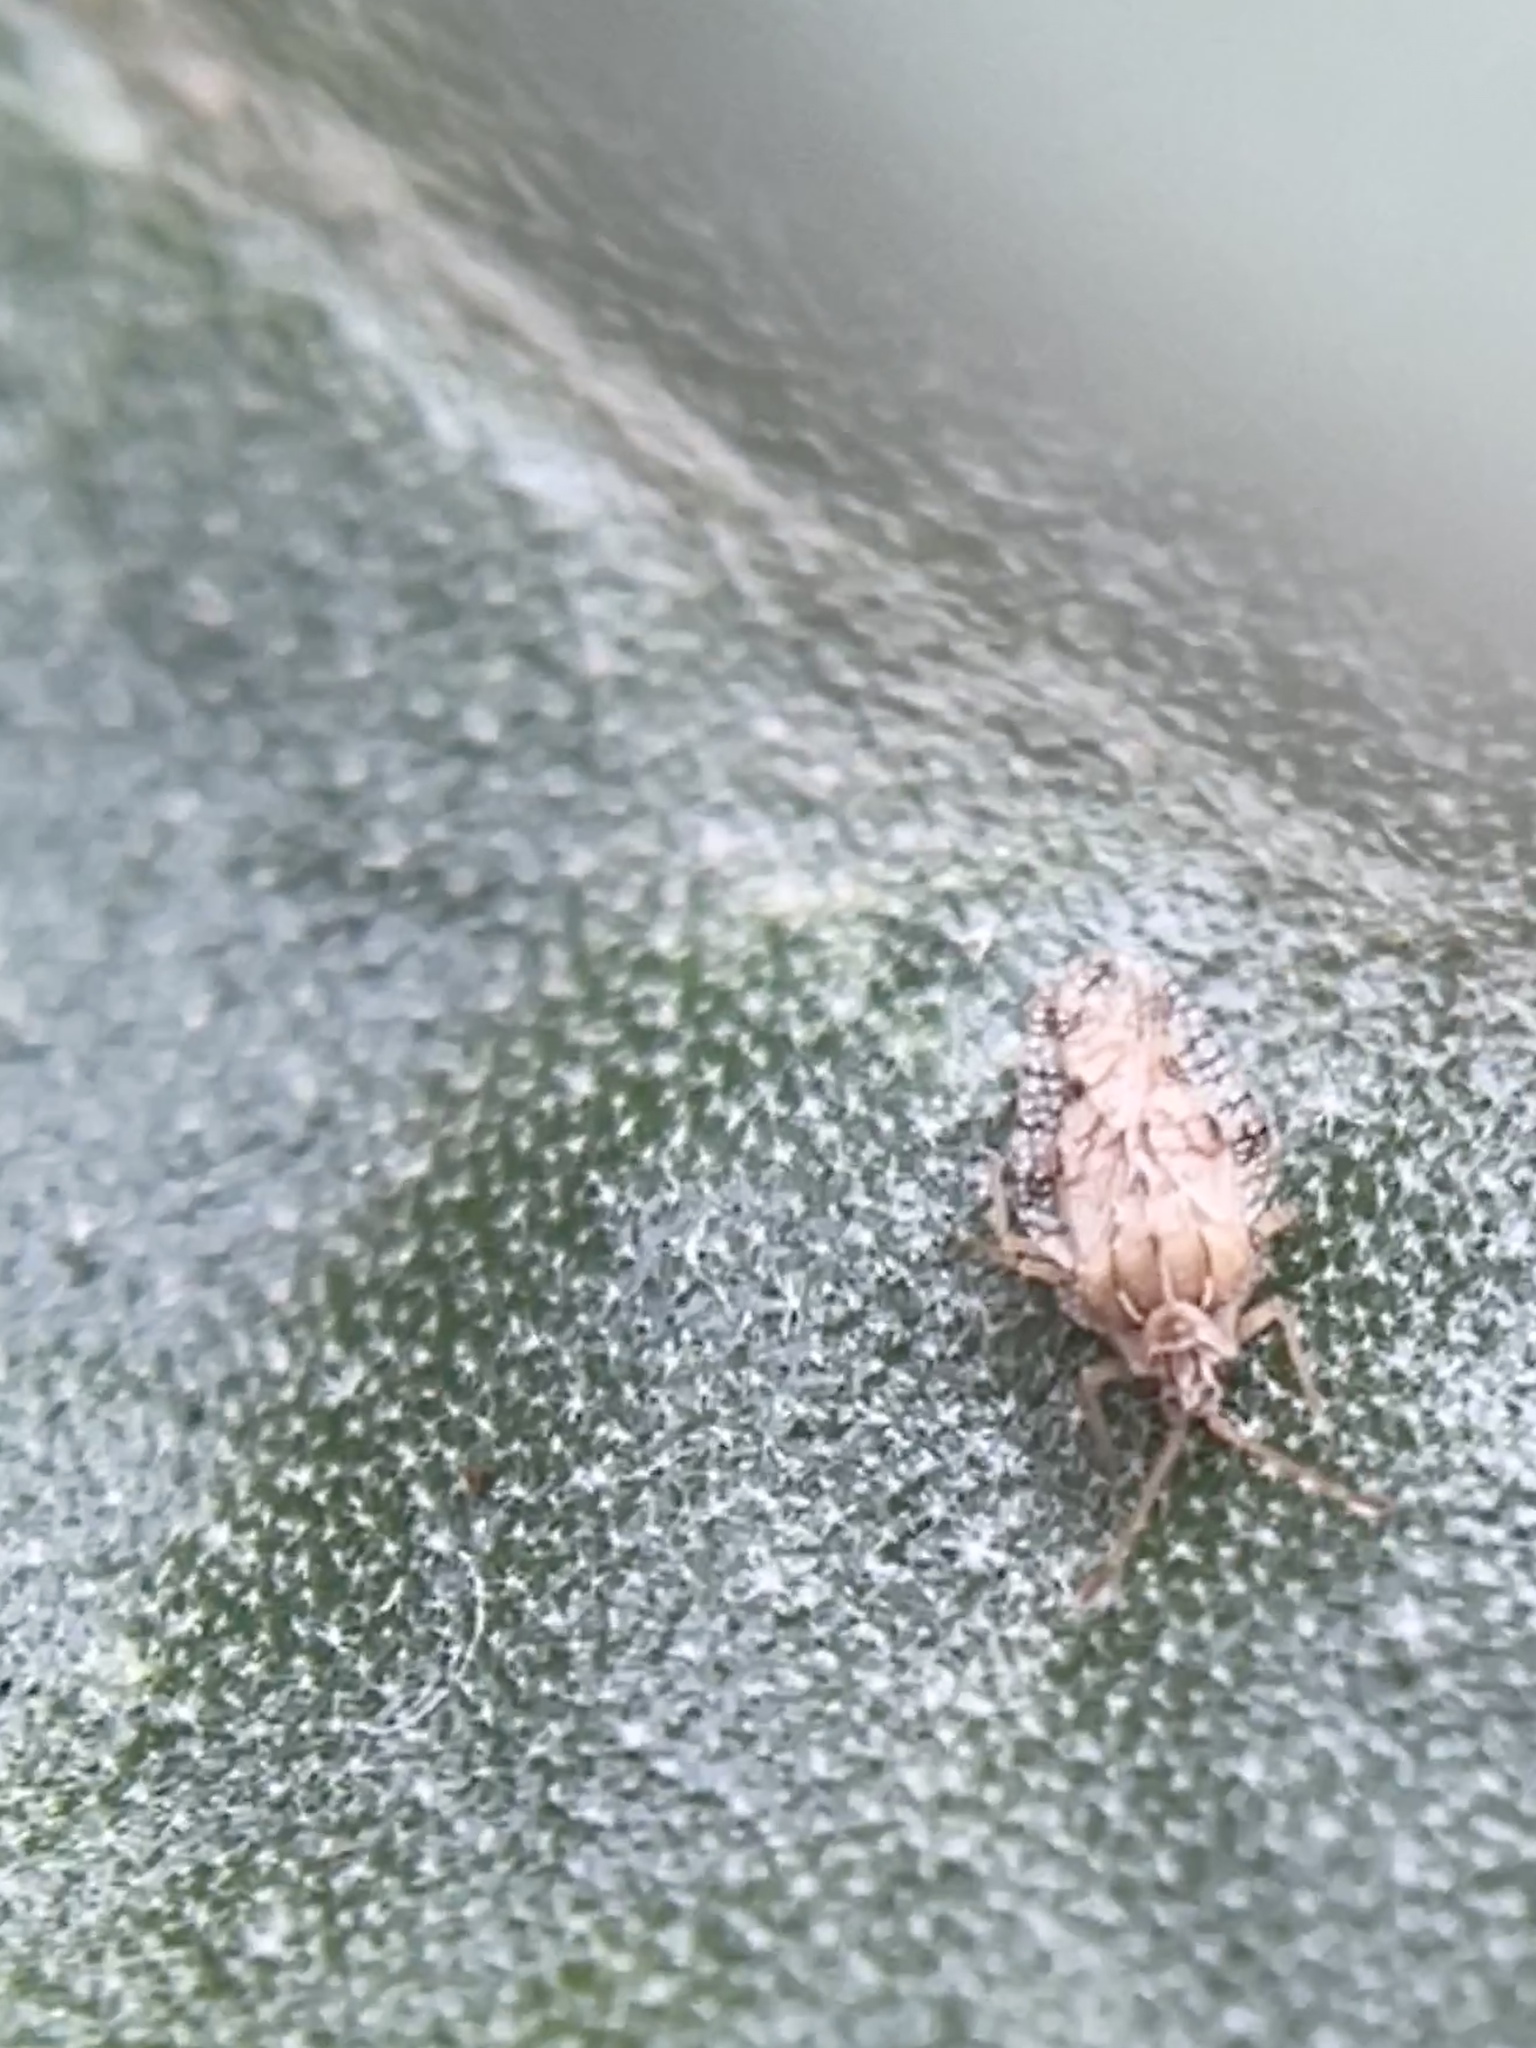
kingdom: Animalia
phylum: Arthropoda
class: Insecta
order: Hemiptera
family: Tingidae
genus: Tingis
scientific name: Tingis hackeri
